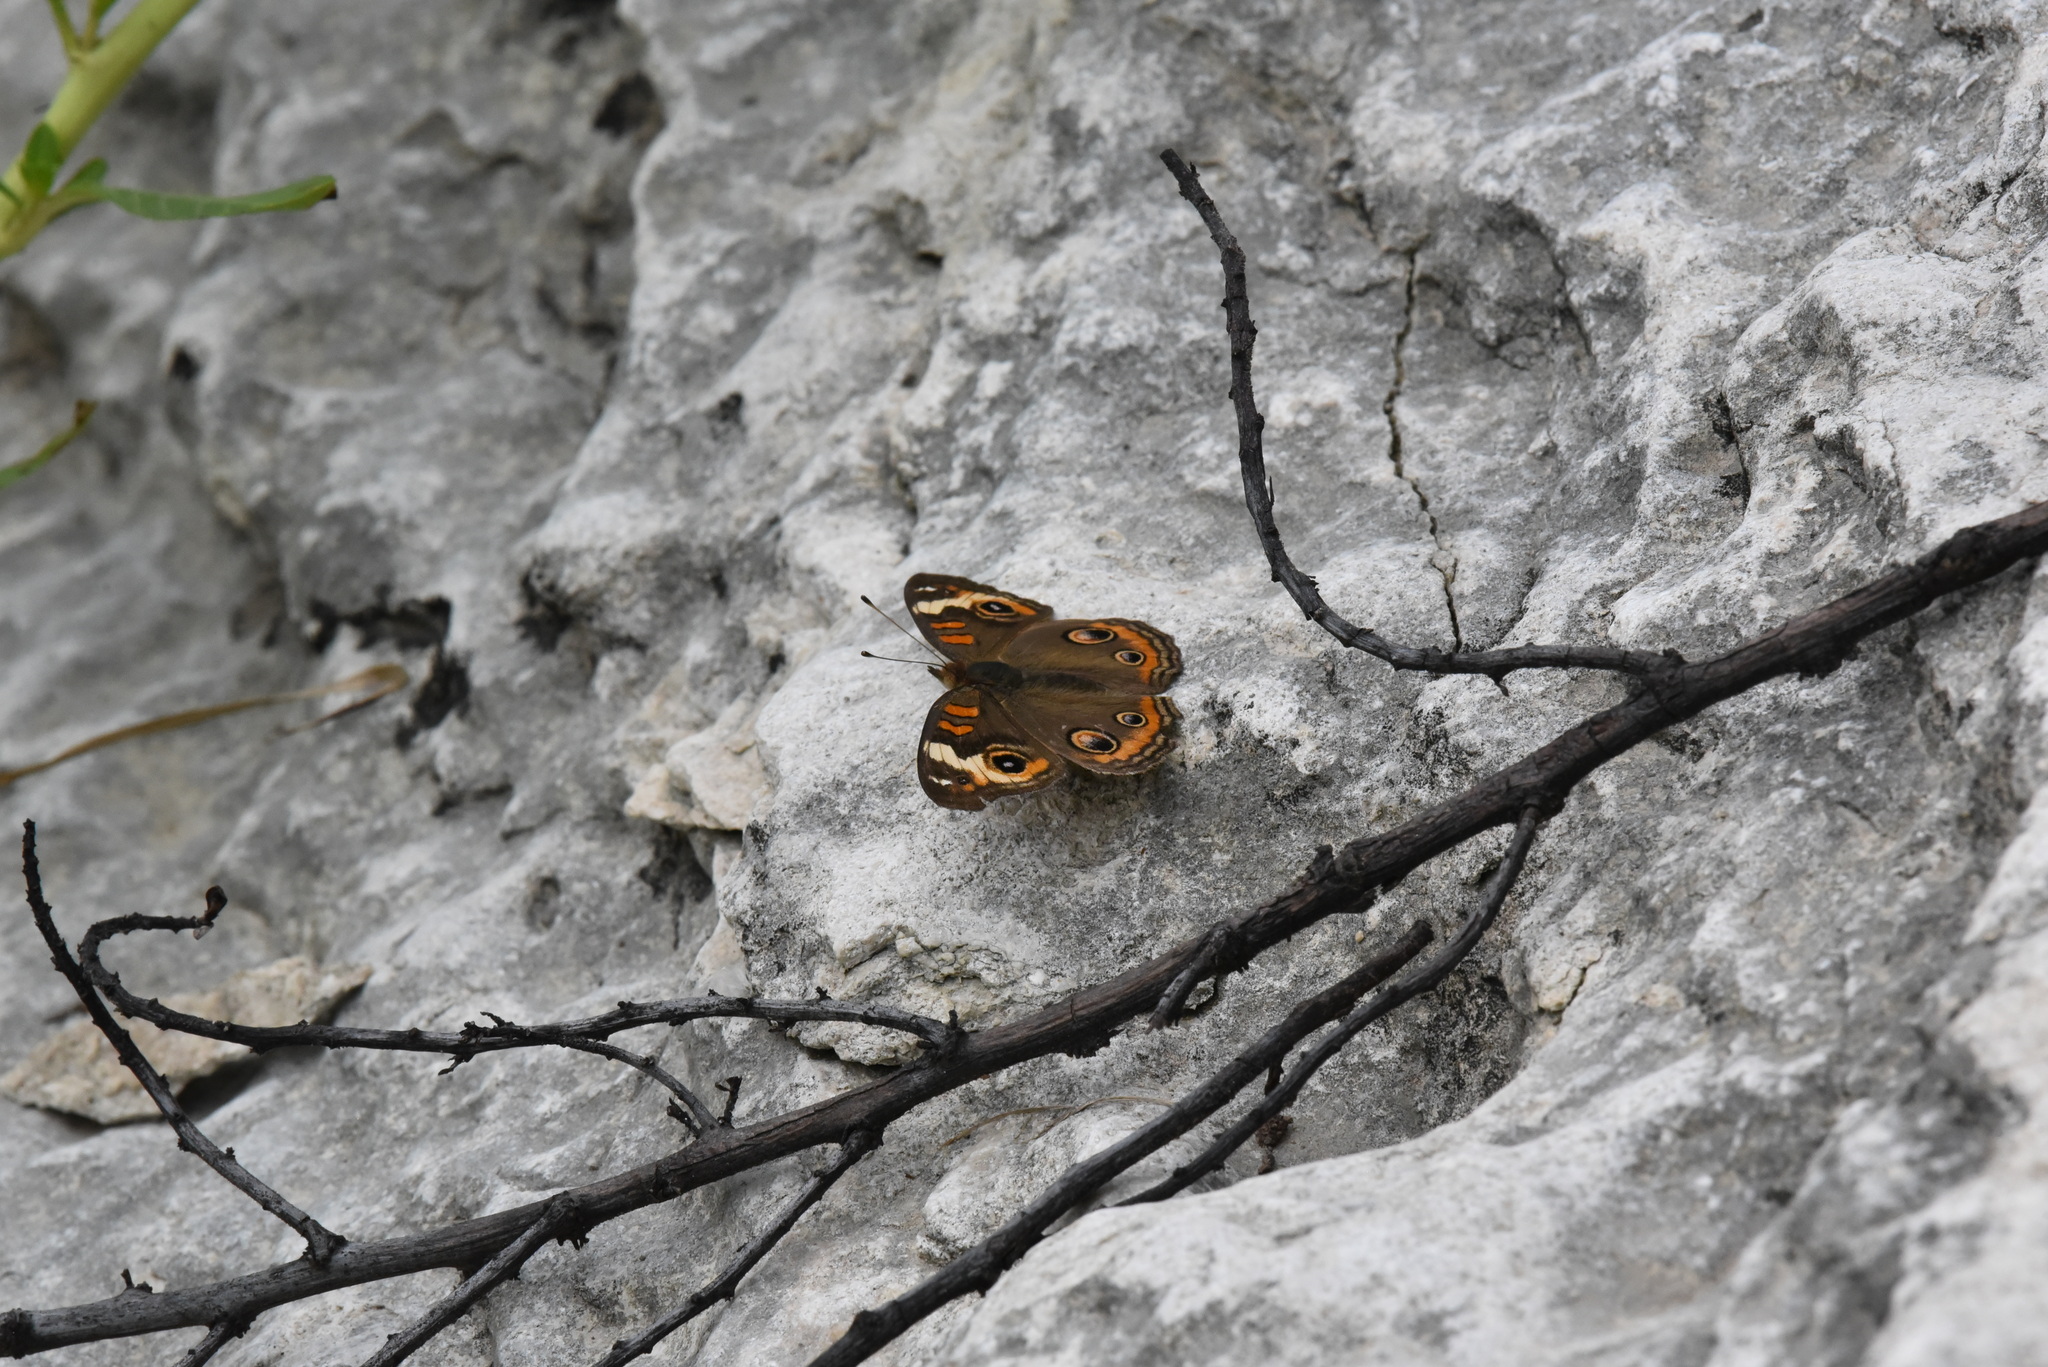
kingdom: Animalia
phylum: Arthropoda
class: Insecta
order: Lepidoptera
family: Nymphalidae
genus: Junonia
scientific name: Junonia coenia
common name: Common buckeye
